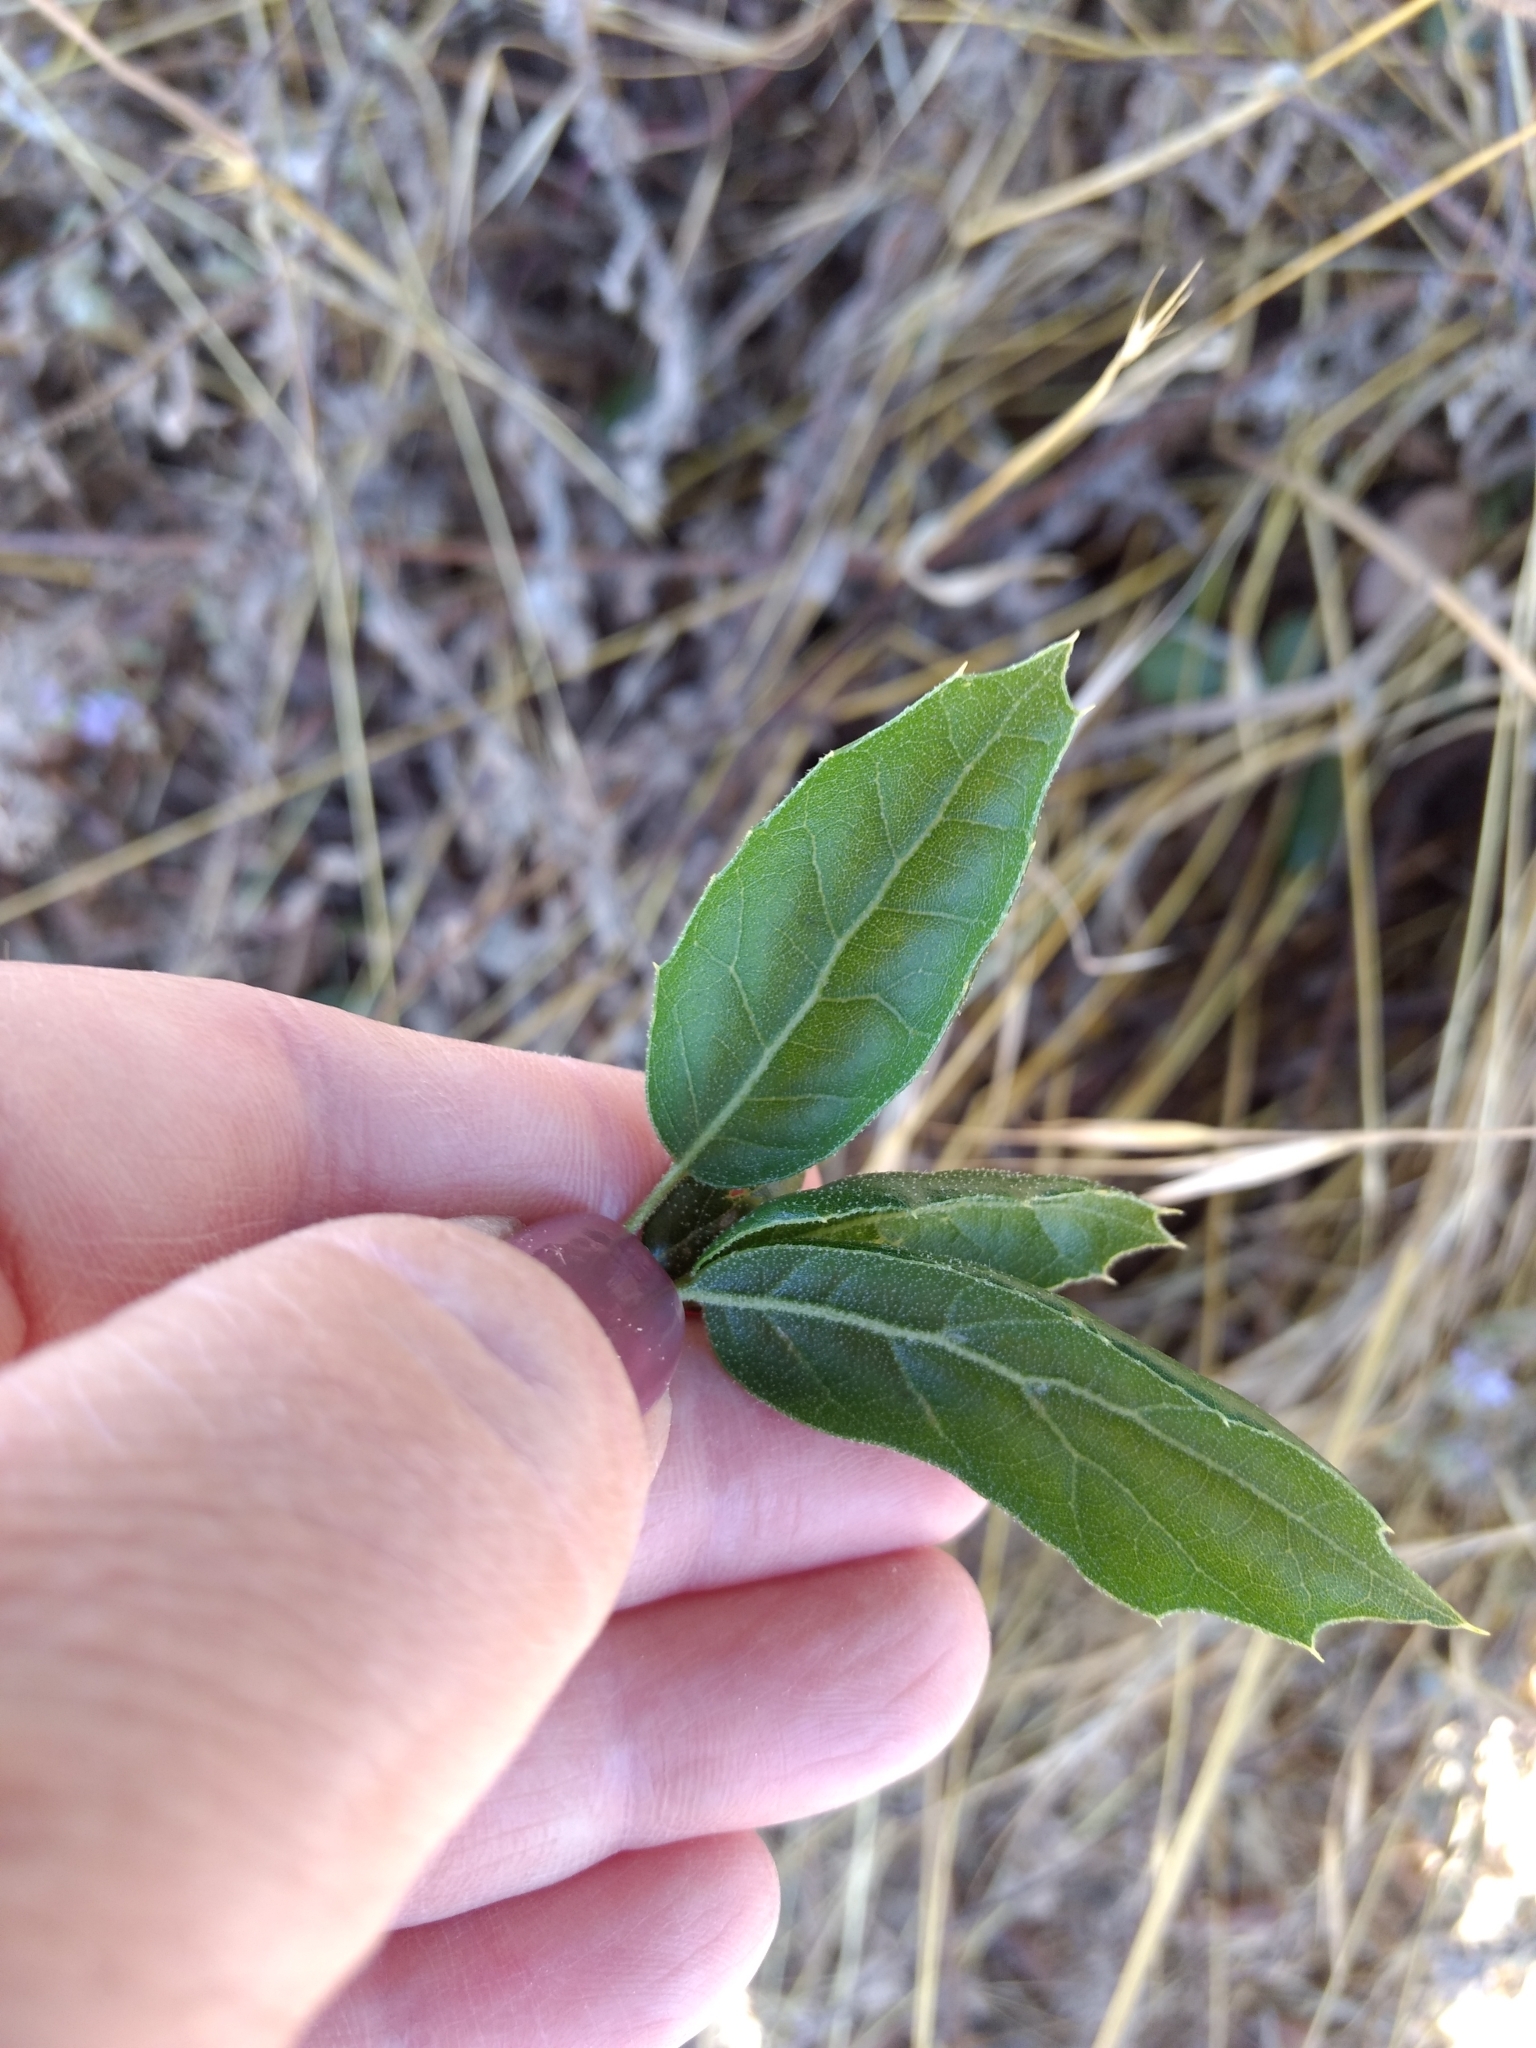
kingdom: Plantae
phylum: Tracheophyta
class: Magnoliopsida
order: Fagales
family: Fagaceae
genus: Quercus
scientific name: Quercus agrifolia
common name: California live oak
